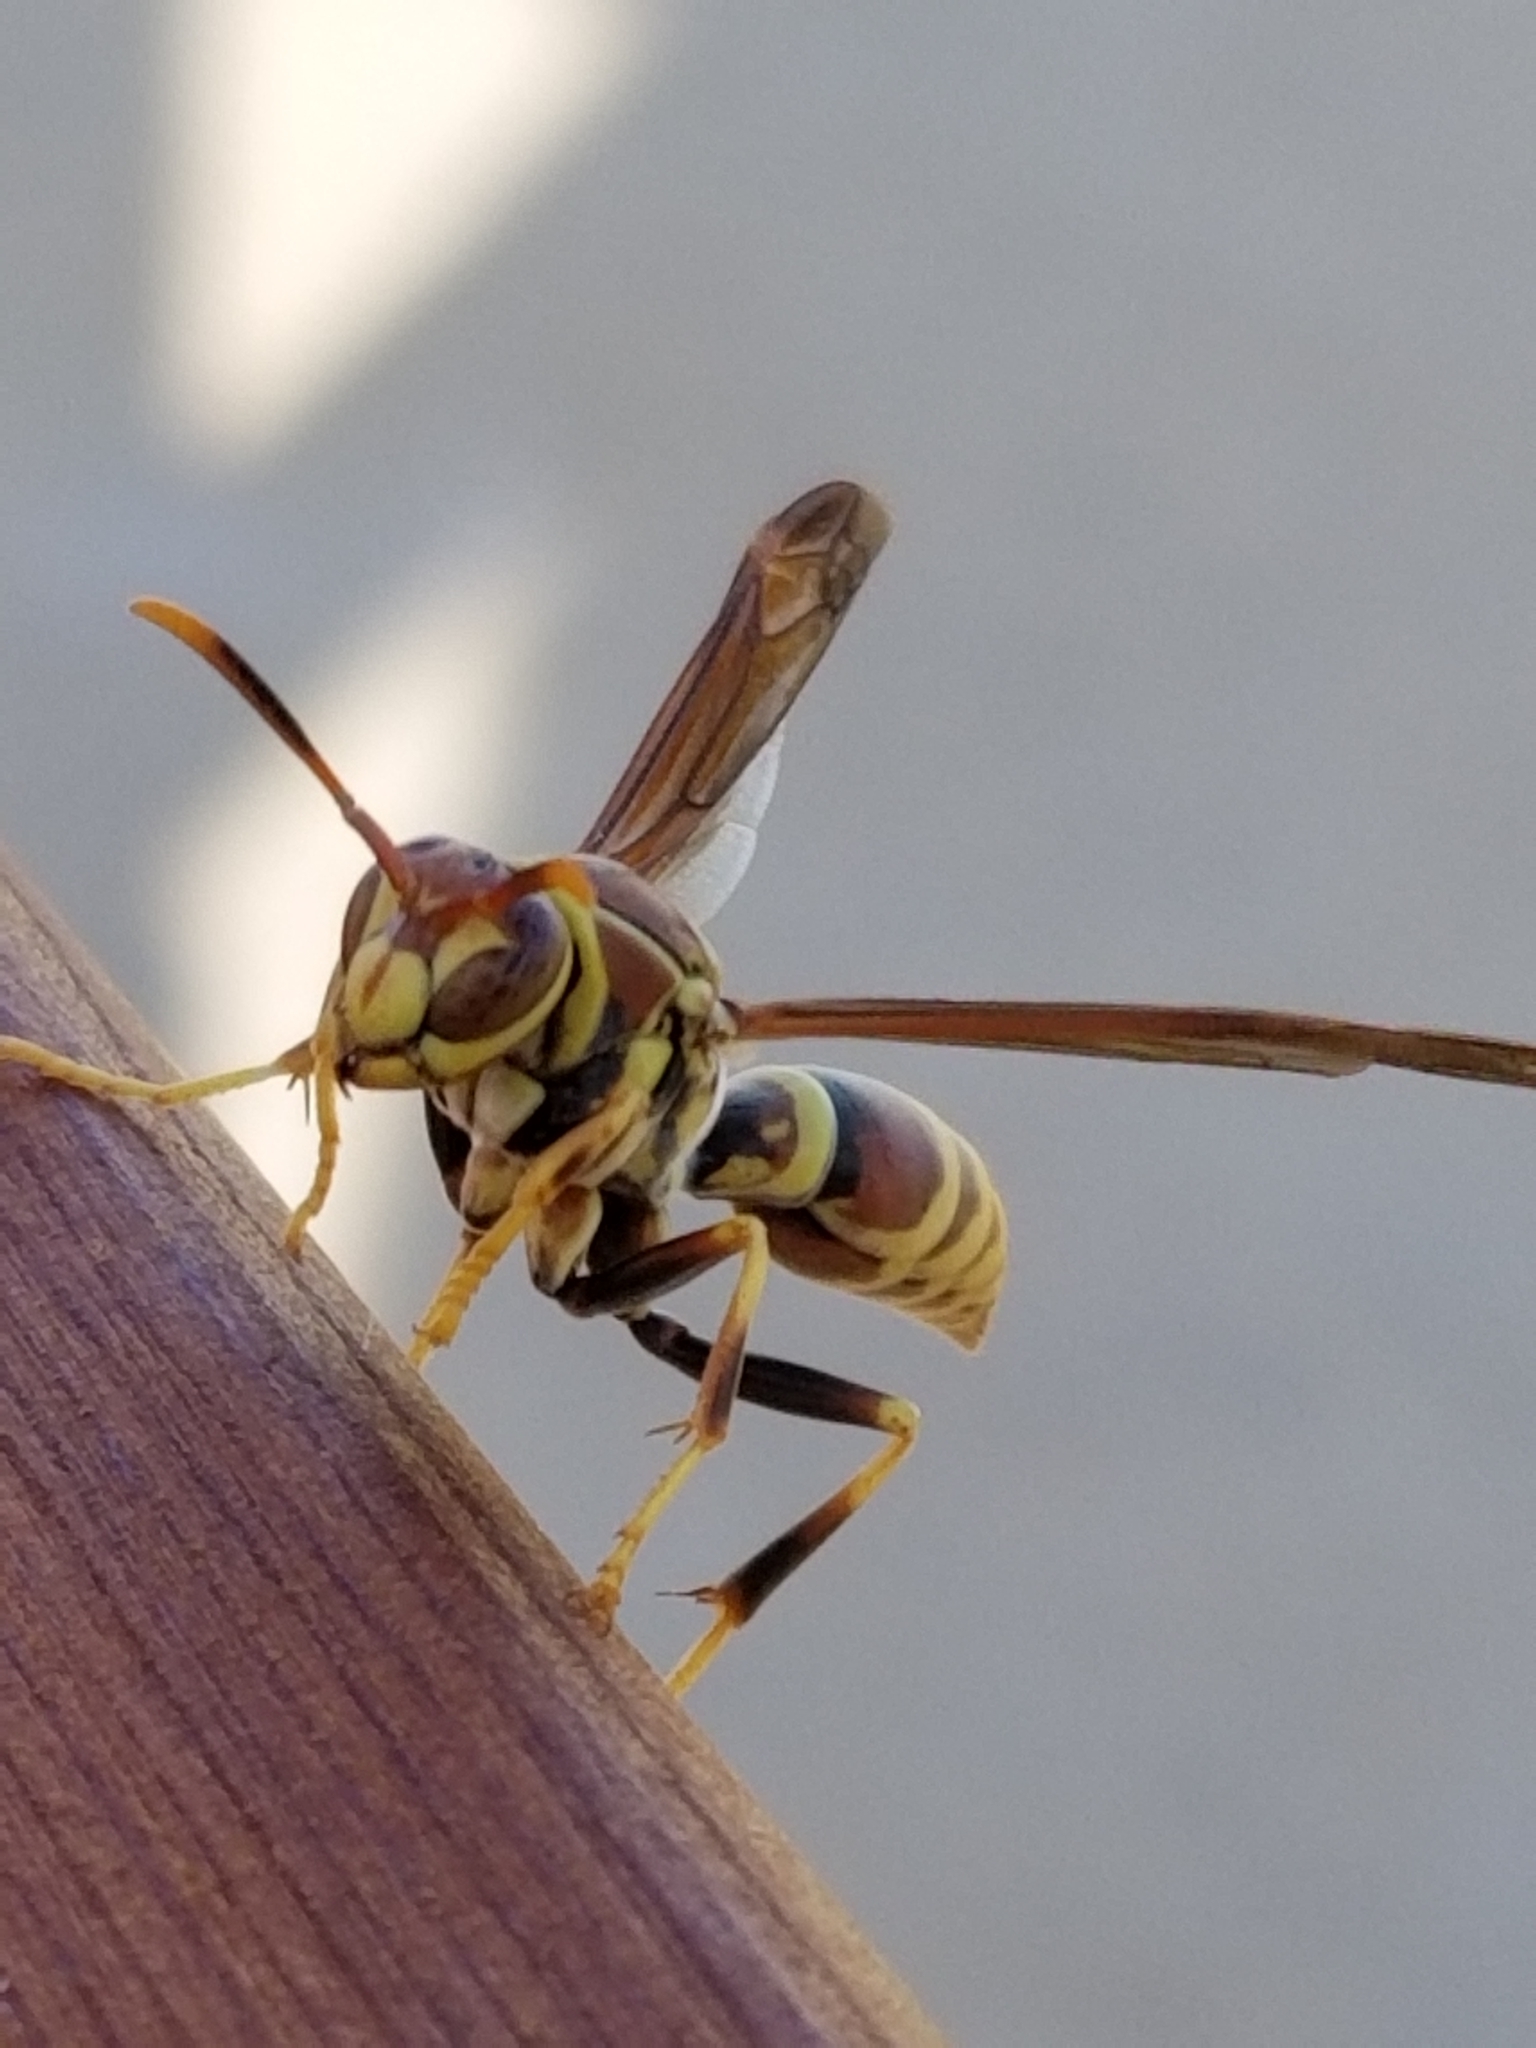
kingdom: Animalia
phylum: Arthropoda
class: Insecta
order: Hymenoptera
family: Eumenidae
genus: Polistes
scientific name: Polistes exclamans
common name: Paper wasp
